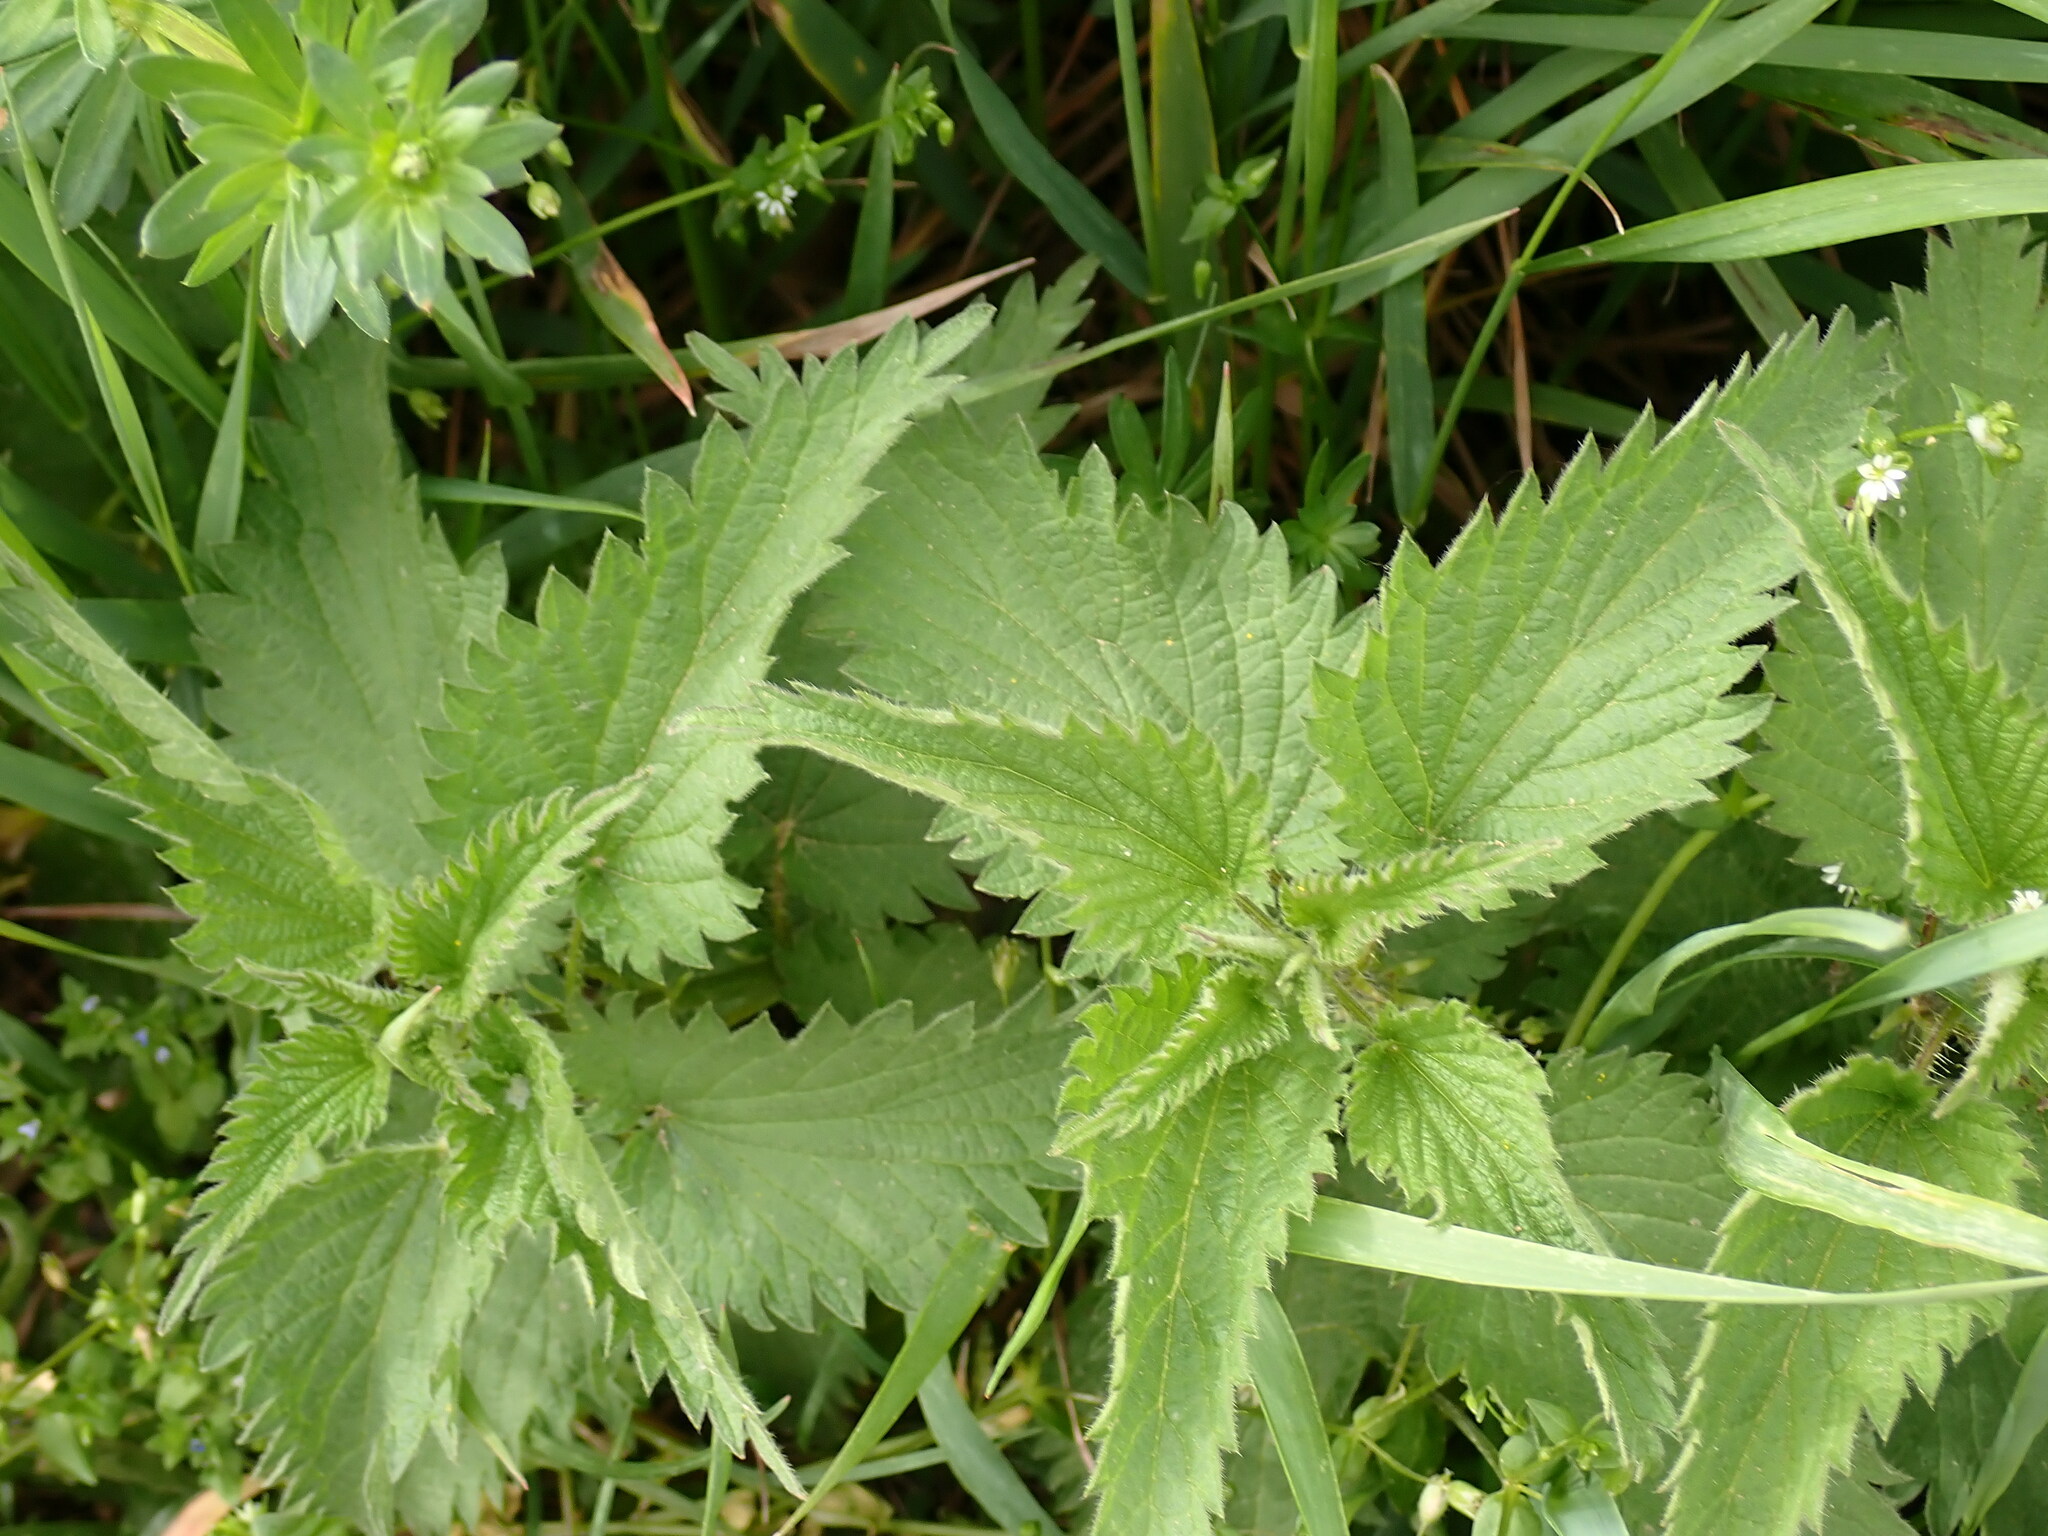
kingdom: Plantae
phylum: Tracheophyta
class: Magnoliopsida
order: Rosales
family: Urticaceae
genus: Urtica
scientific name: Urtica dioica
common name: Common nettle
